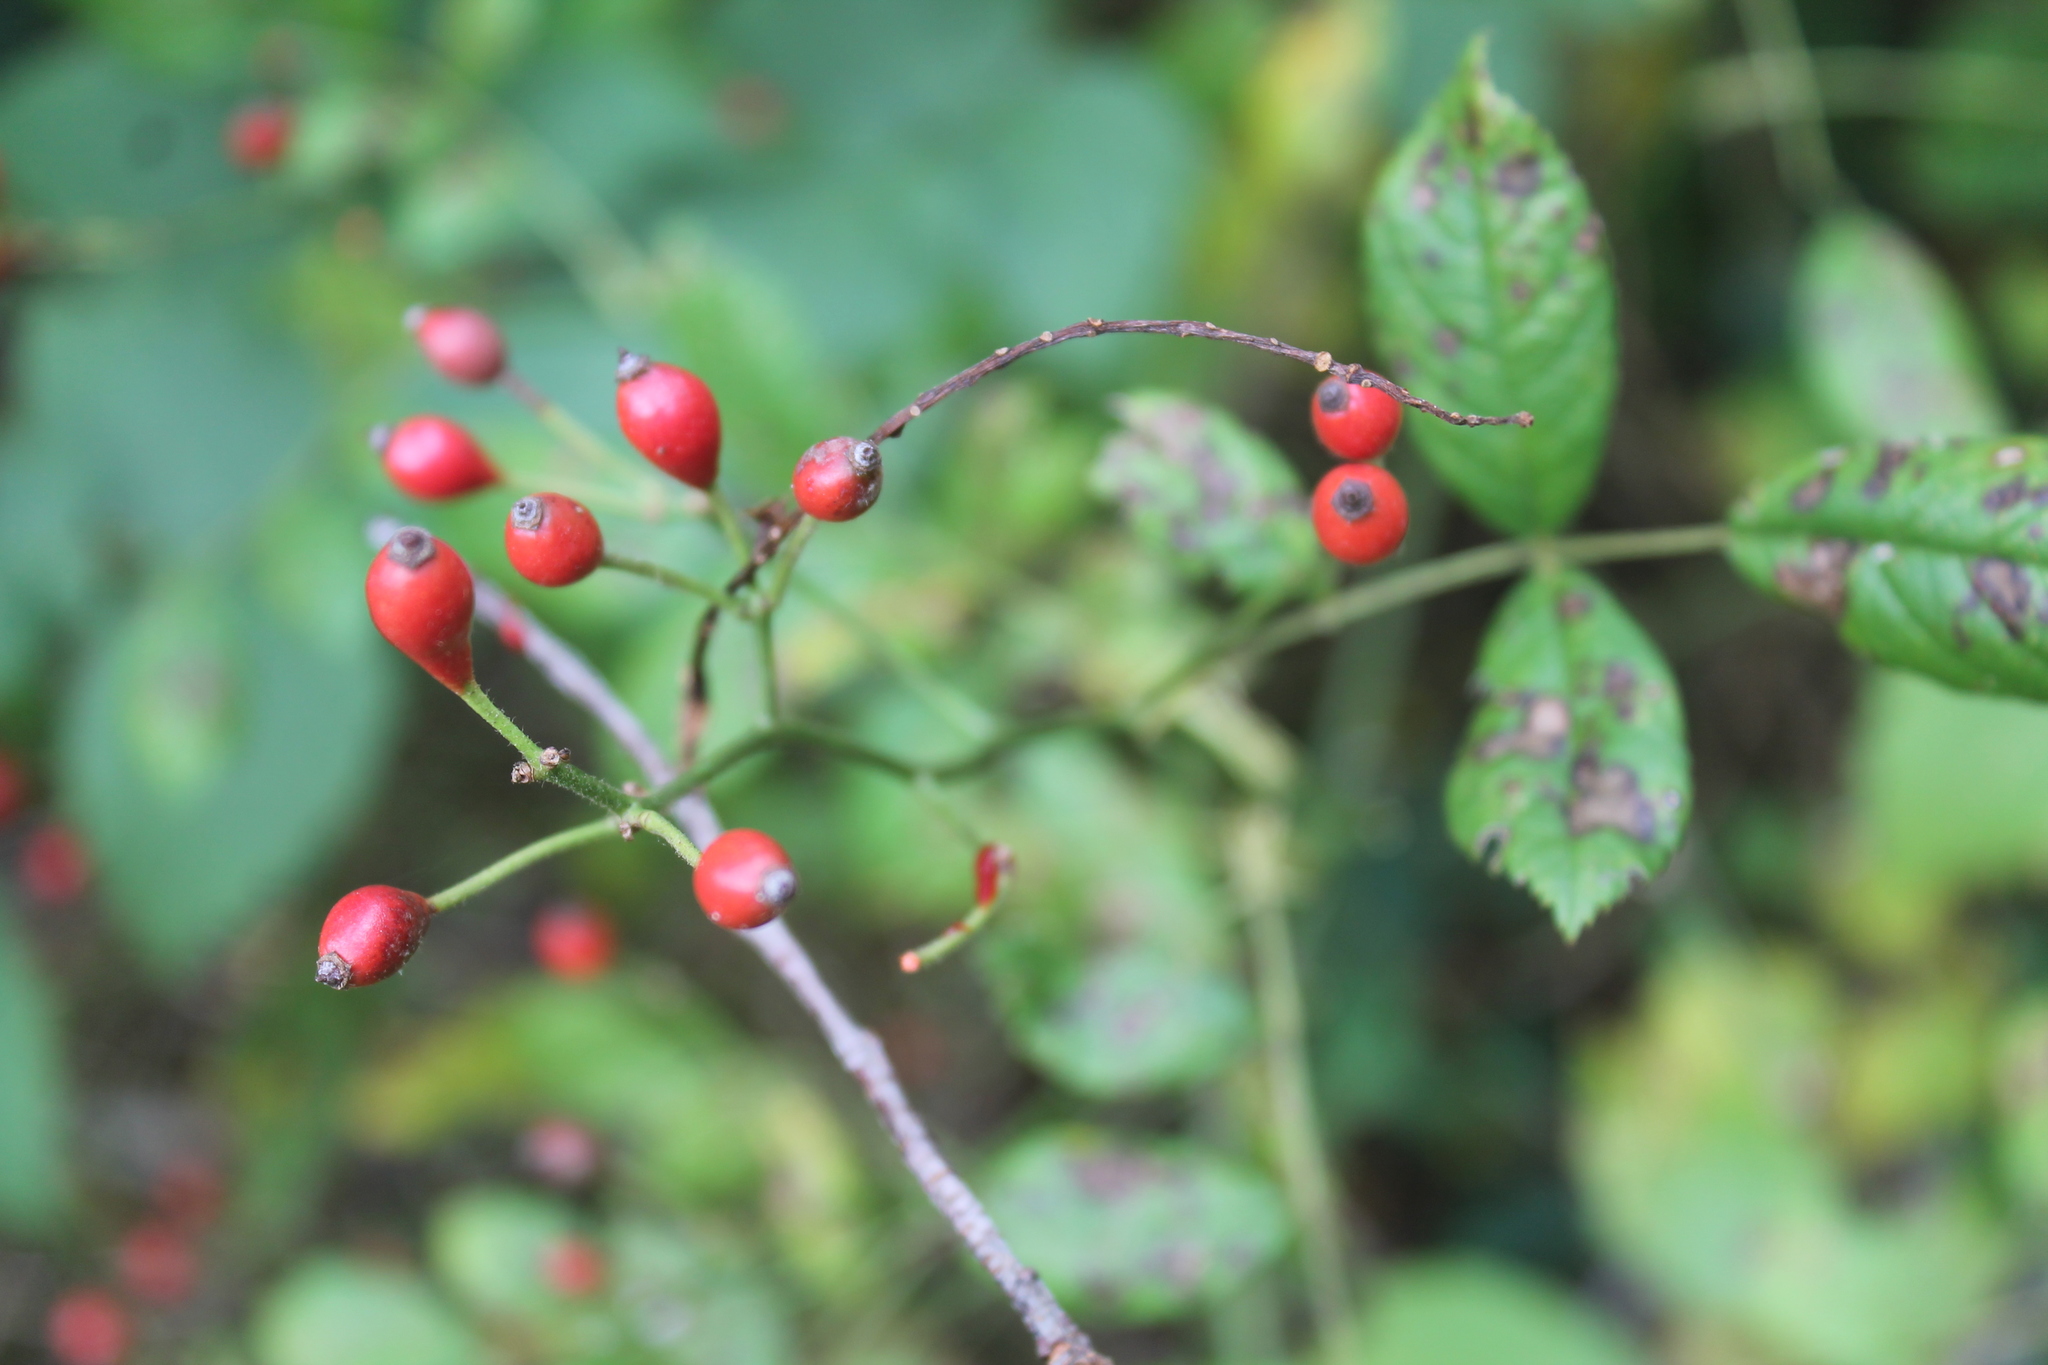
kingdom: Plantae
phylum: Tracheophyta
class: Magnoliopsida
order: Rosales
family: Rosaceae
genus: Rosa
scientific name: Rosa multiflora
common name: Multiflora rose
